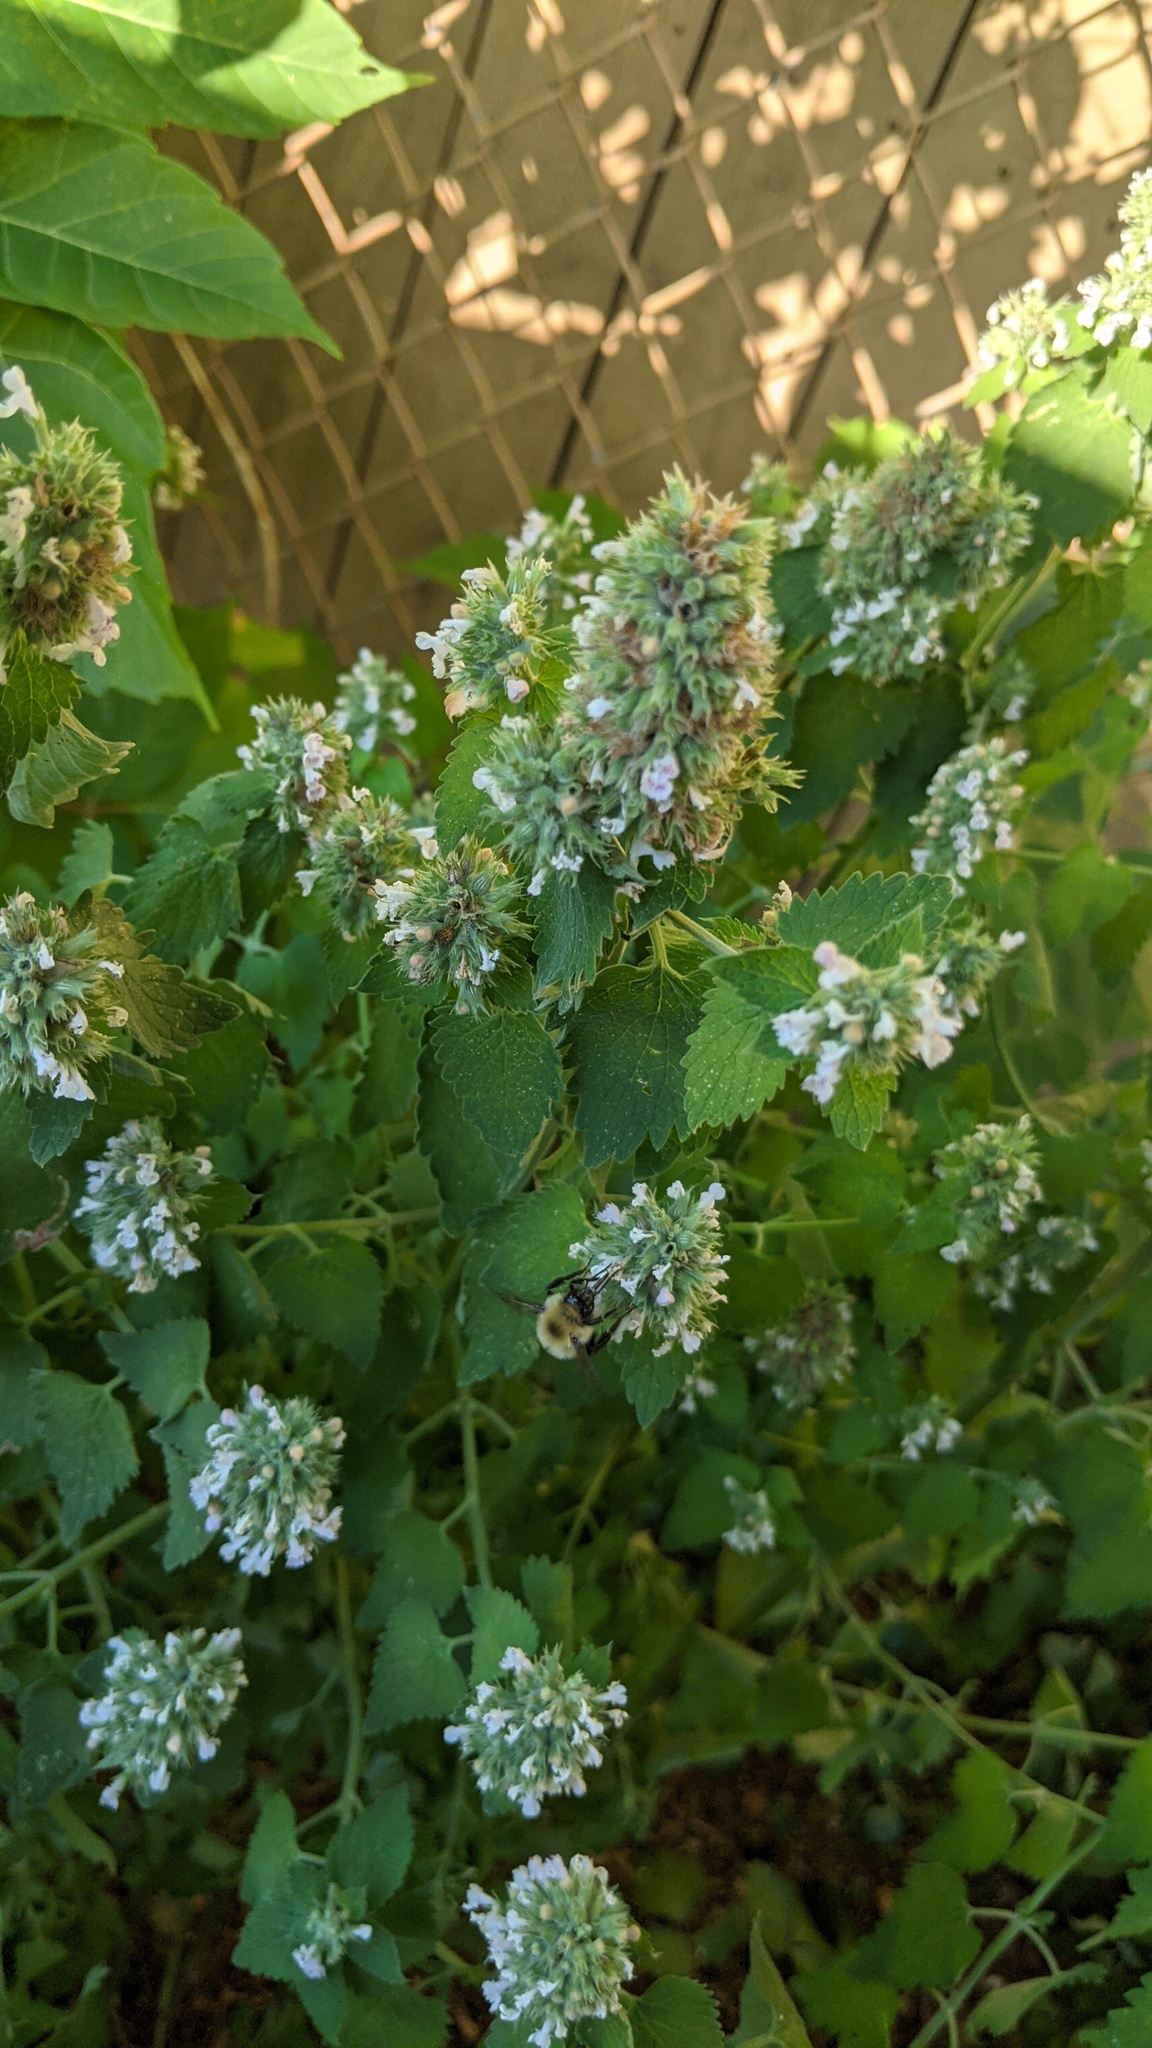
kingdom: Plantae
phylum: Tracheophyta
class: Magnoliopsida
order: Lamiales
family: Lamiaceae
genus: Nepeta
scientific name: Nepeta cataria
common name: Catnip
